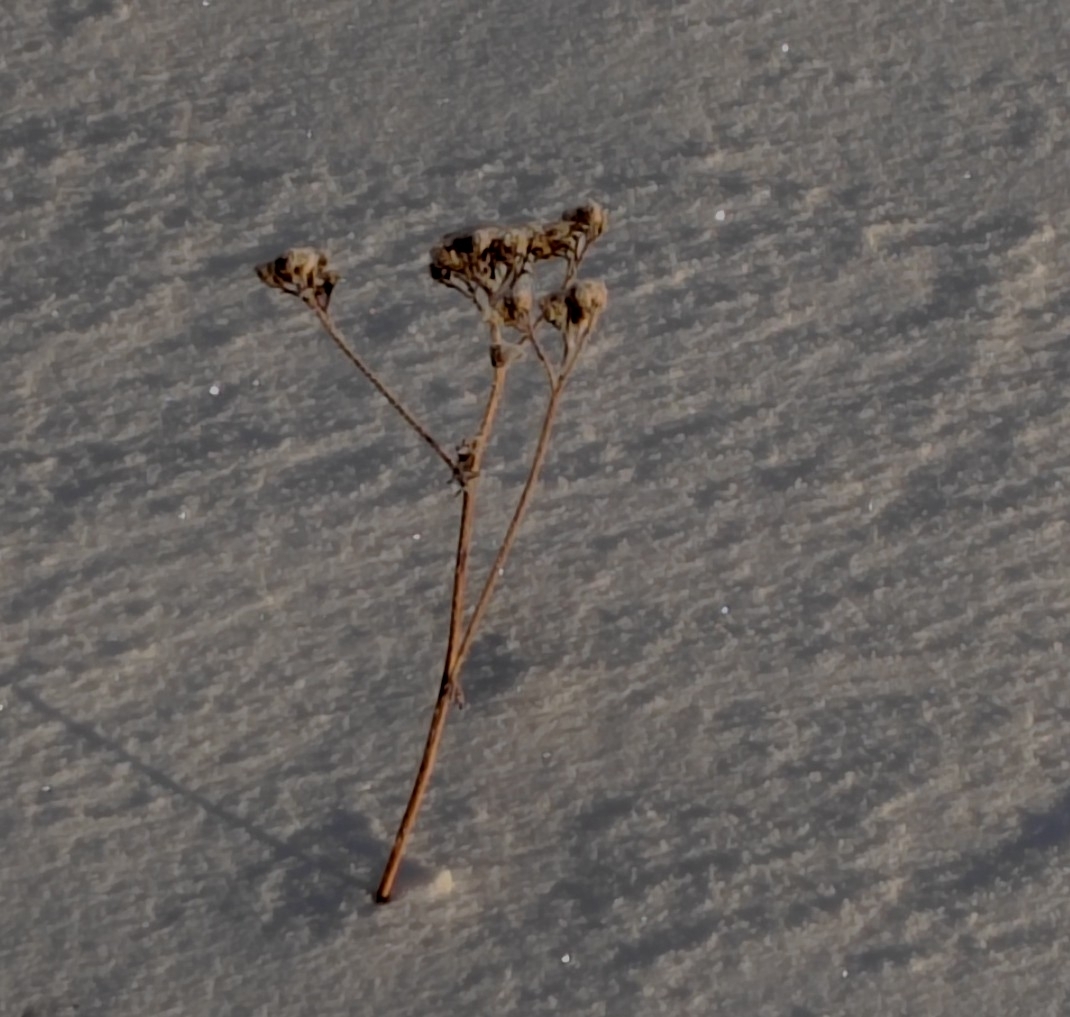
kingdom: Plantae
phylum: Tracheophyta
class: Magnoliopsida
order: Asterales
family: Asteraceae
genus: Tanacetum
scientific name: Tanacetum vulgare
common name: Common tansy
